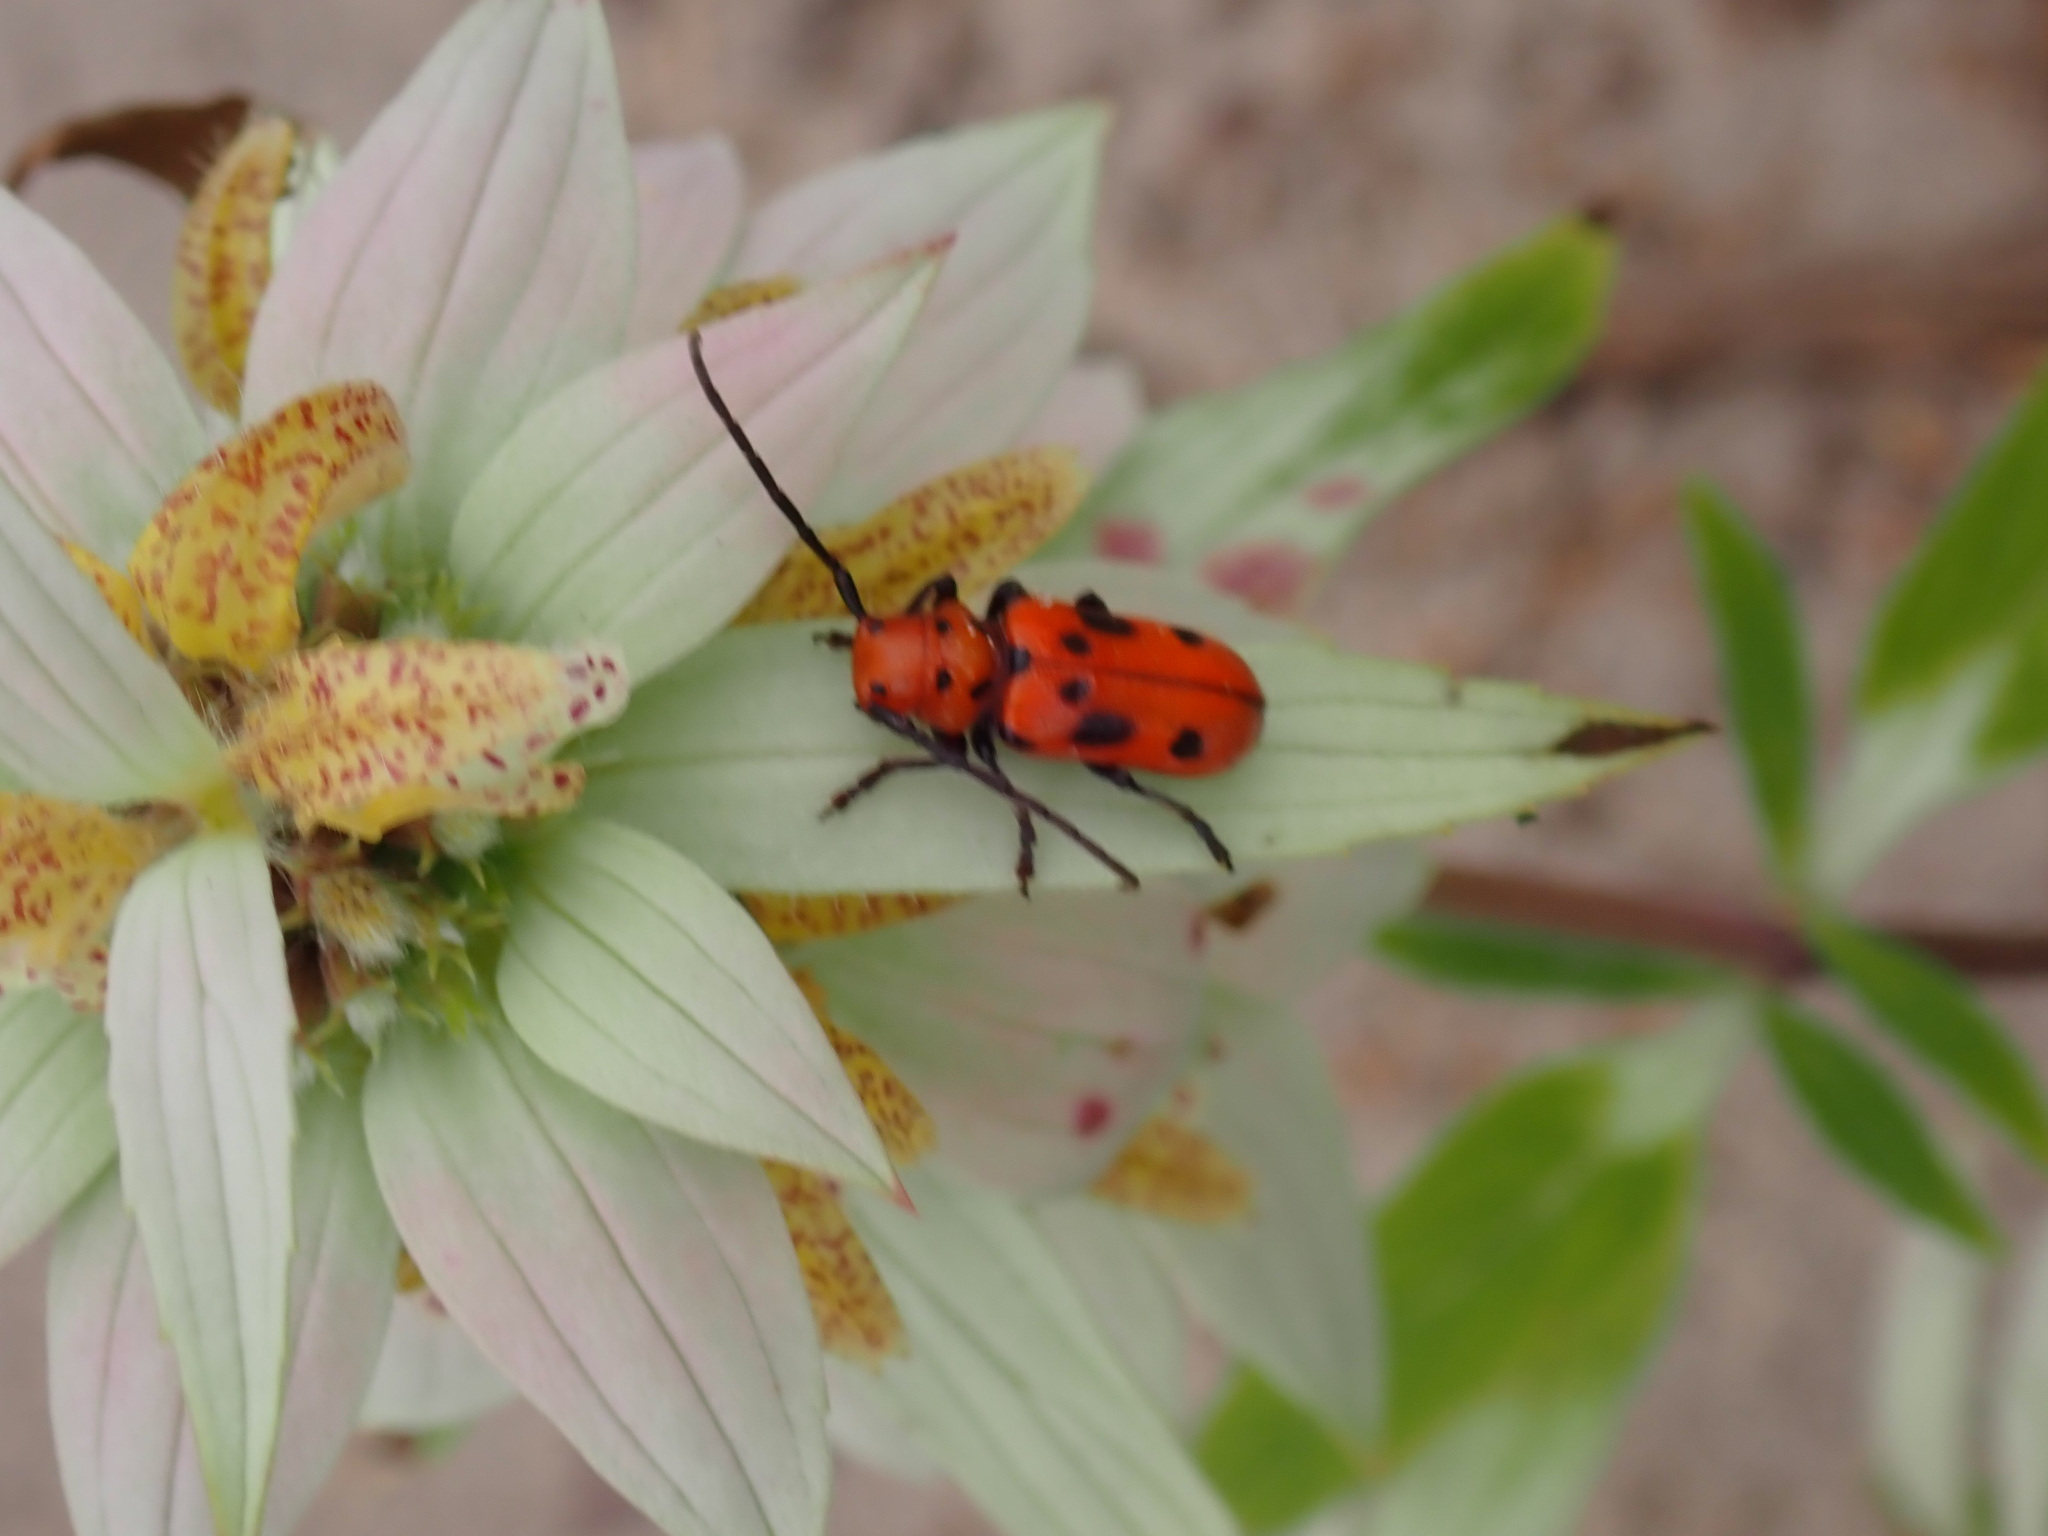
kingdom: Animalia
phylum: Arthropoda
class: Insecta
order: Coleoptera
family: Cerambycidae
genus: Tetraopes
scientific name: Tetraopes tetrophthalmus
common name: Red milkweed beetle
